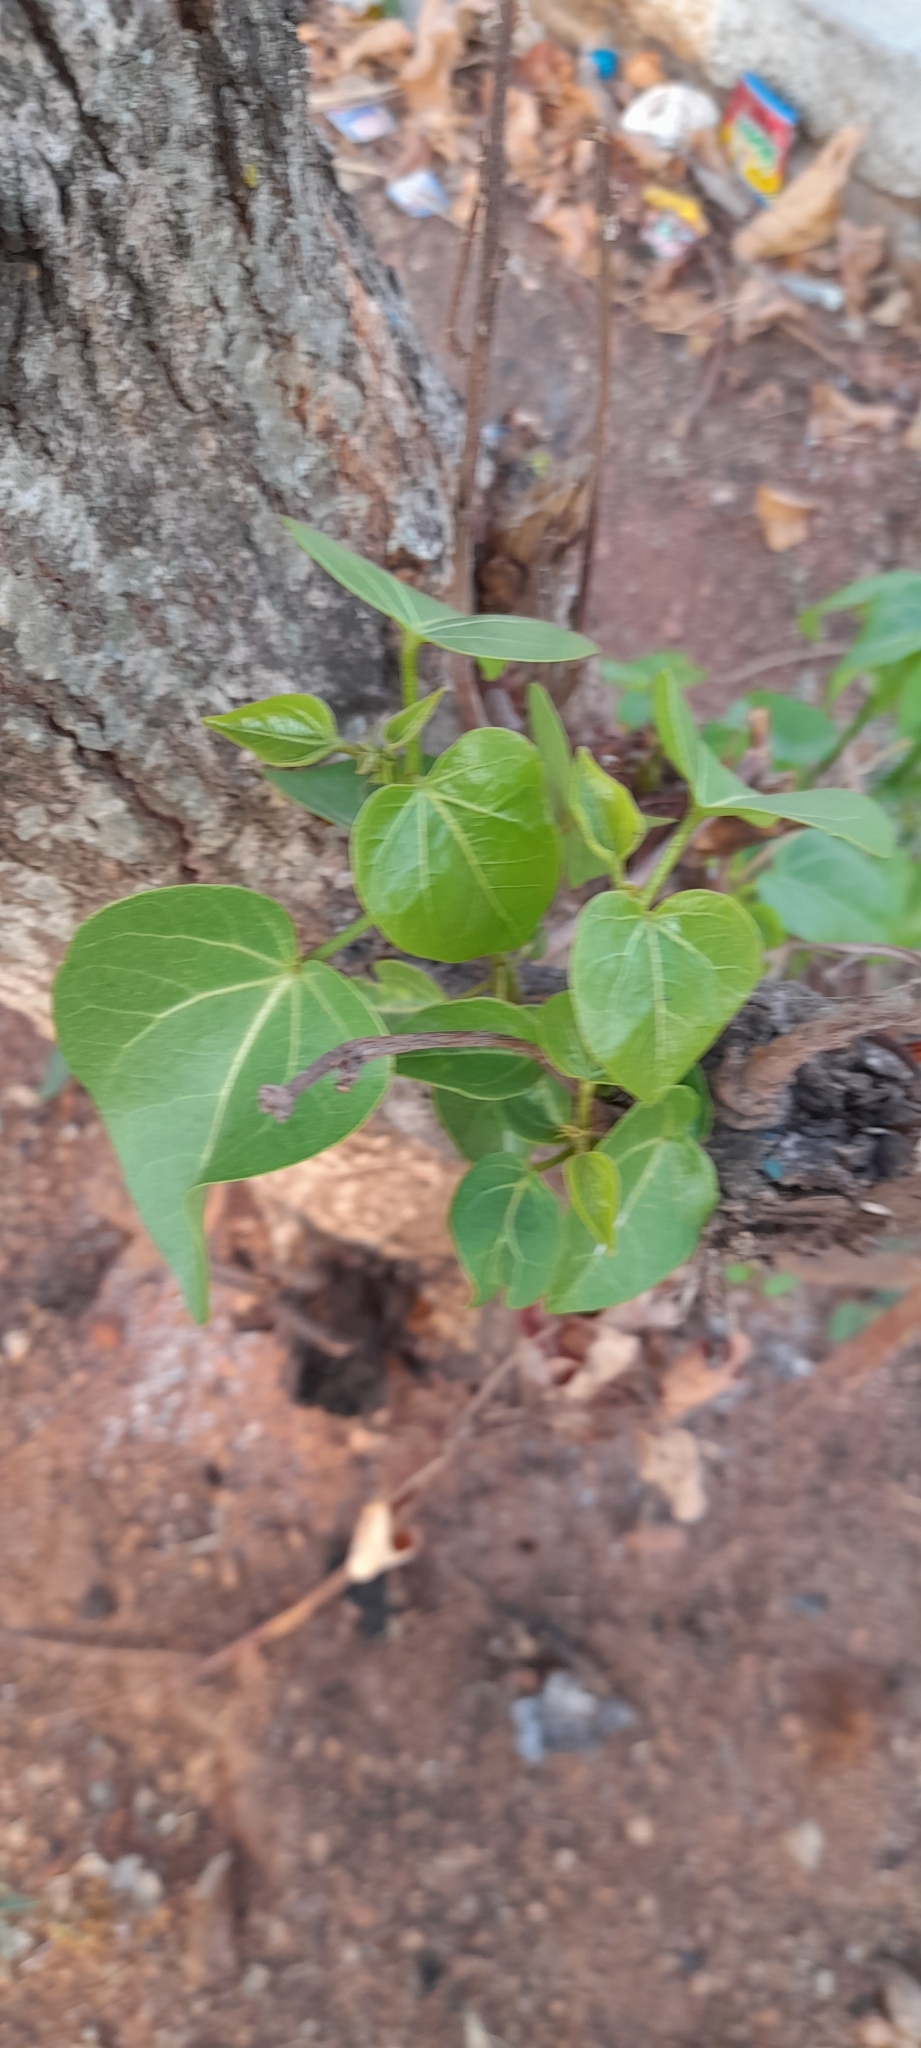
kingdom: Plantae
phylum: Tracheophyta
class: Magnoliopsida
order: Malvales
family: Malvaceae
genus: Thespesia
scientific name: Thespesia populnea
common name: Seaside mahoe
